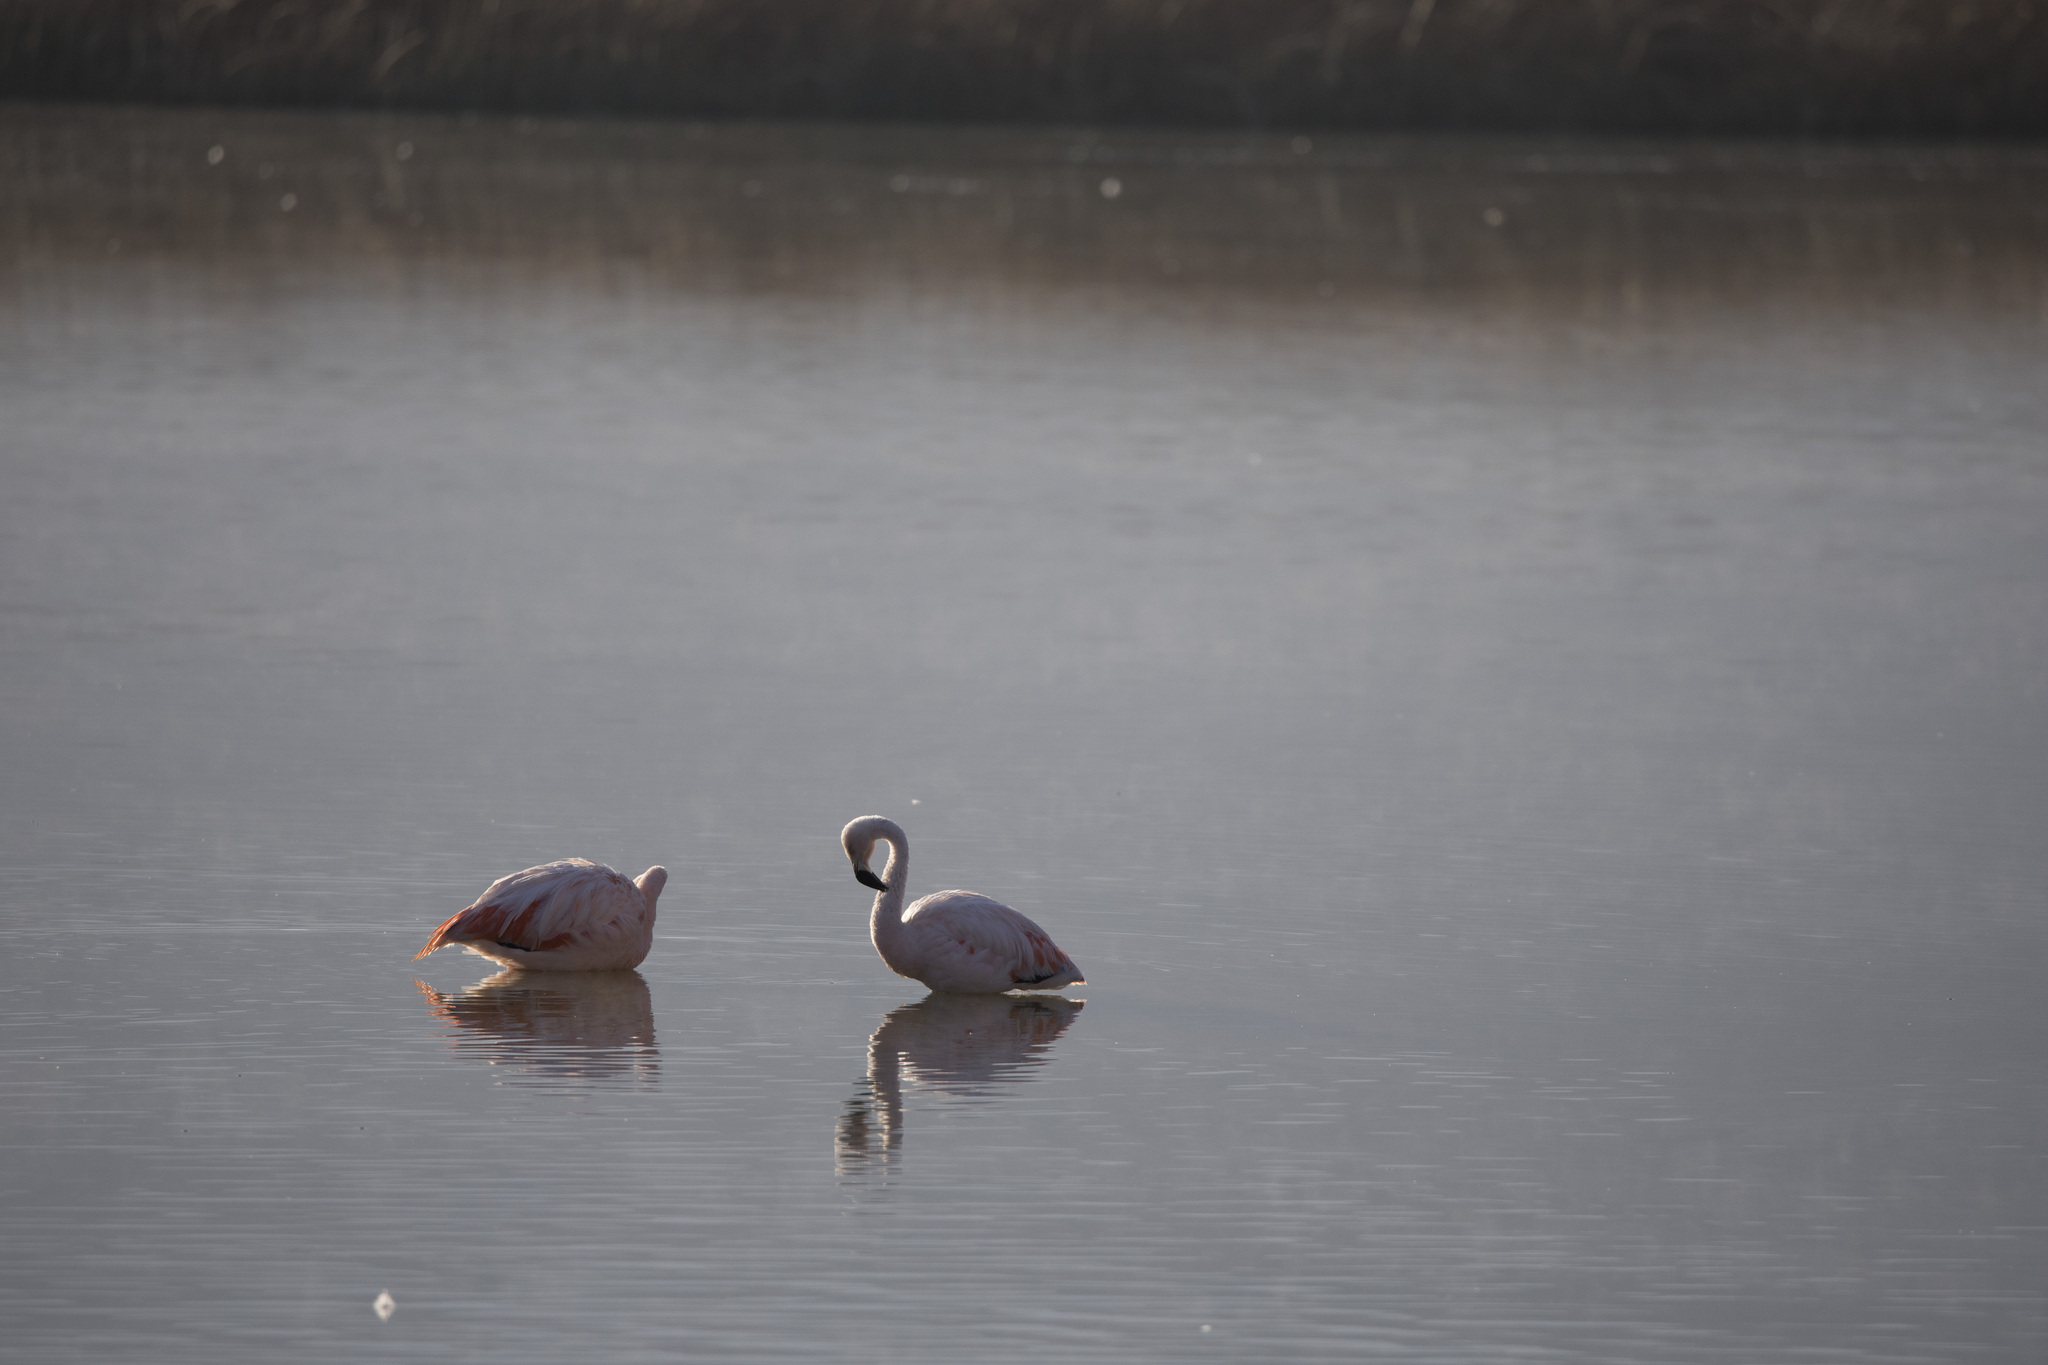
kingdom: Animalia
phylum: Chordata
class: Aves
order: Phoenicopteriformes
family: Phoenicopteridae
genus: Phoenicopterus
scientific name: Phoenicopterus chilensis
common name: Chilean flamingo
